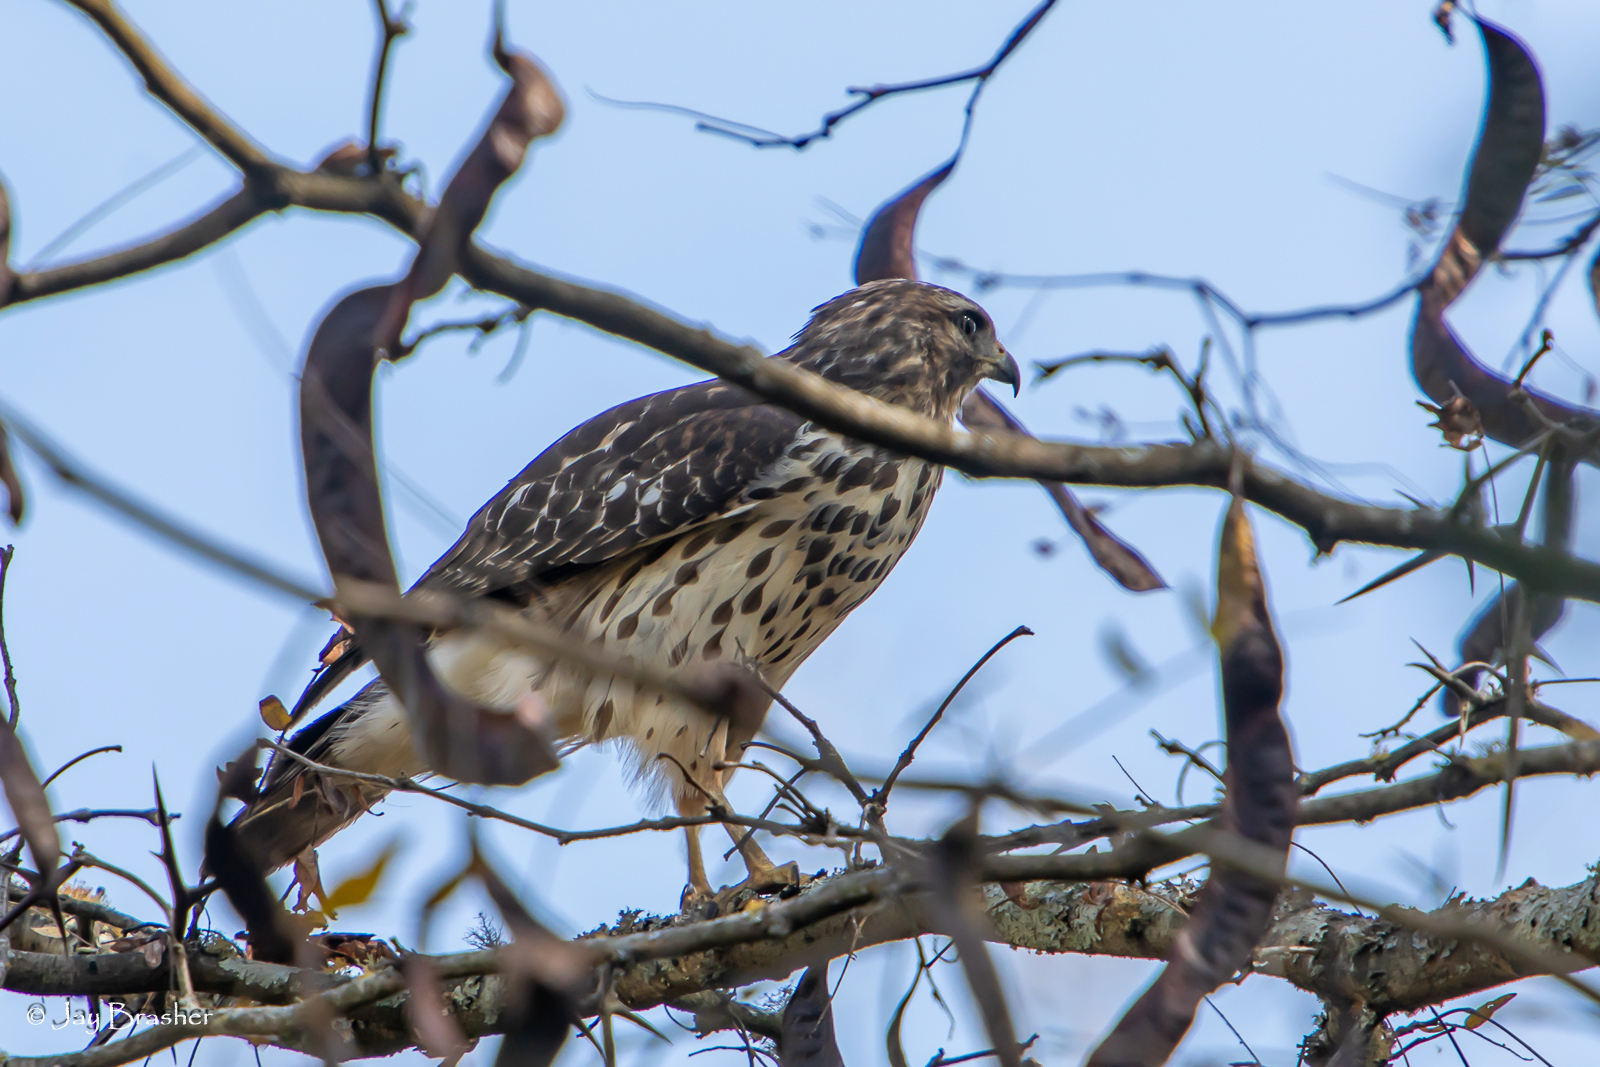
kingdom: Animalia
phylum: Chordata
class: Aves
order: Accipitriformes
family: Accipitridae
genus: Buteo
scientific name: Buteo lineatus
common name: Red-shouldered hawk
